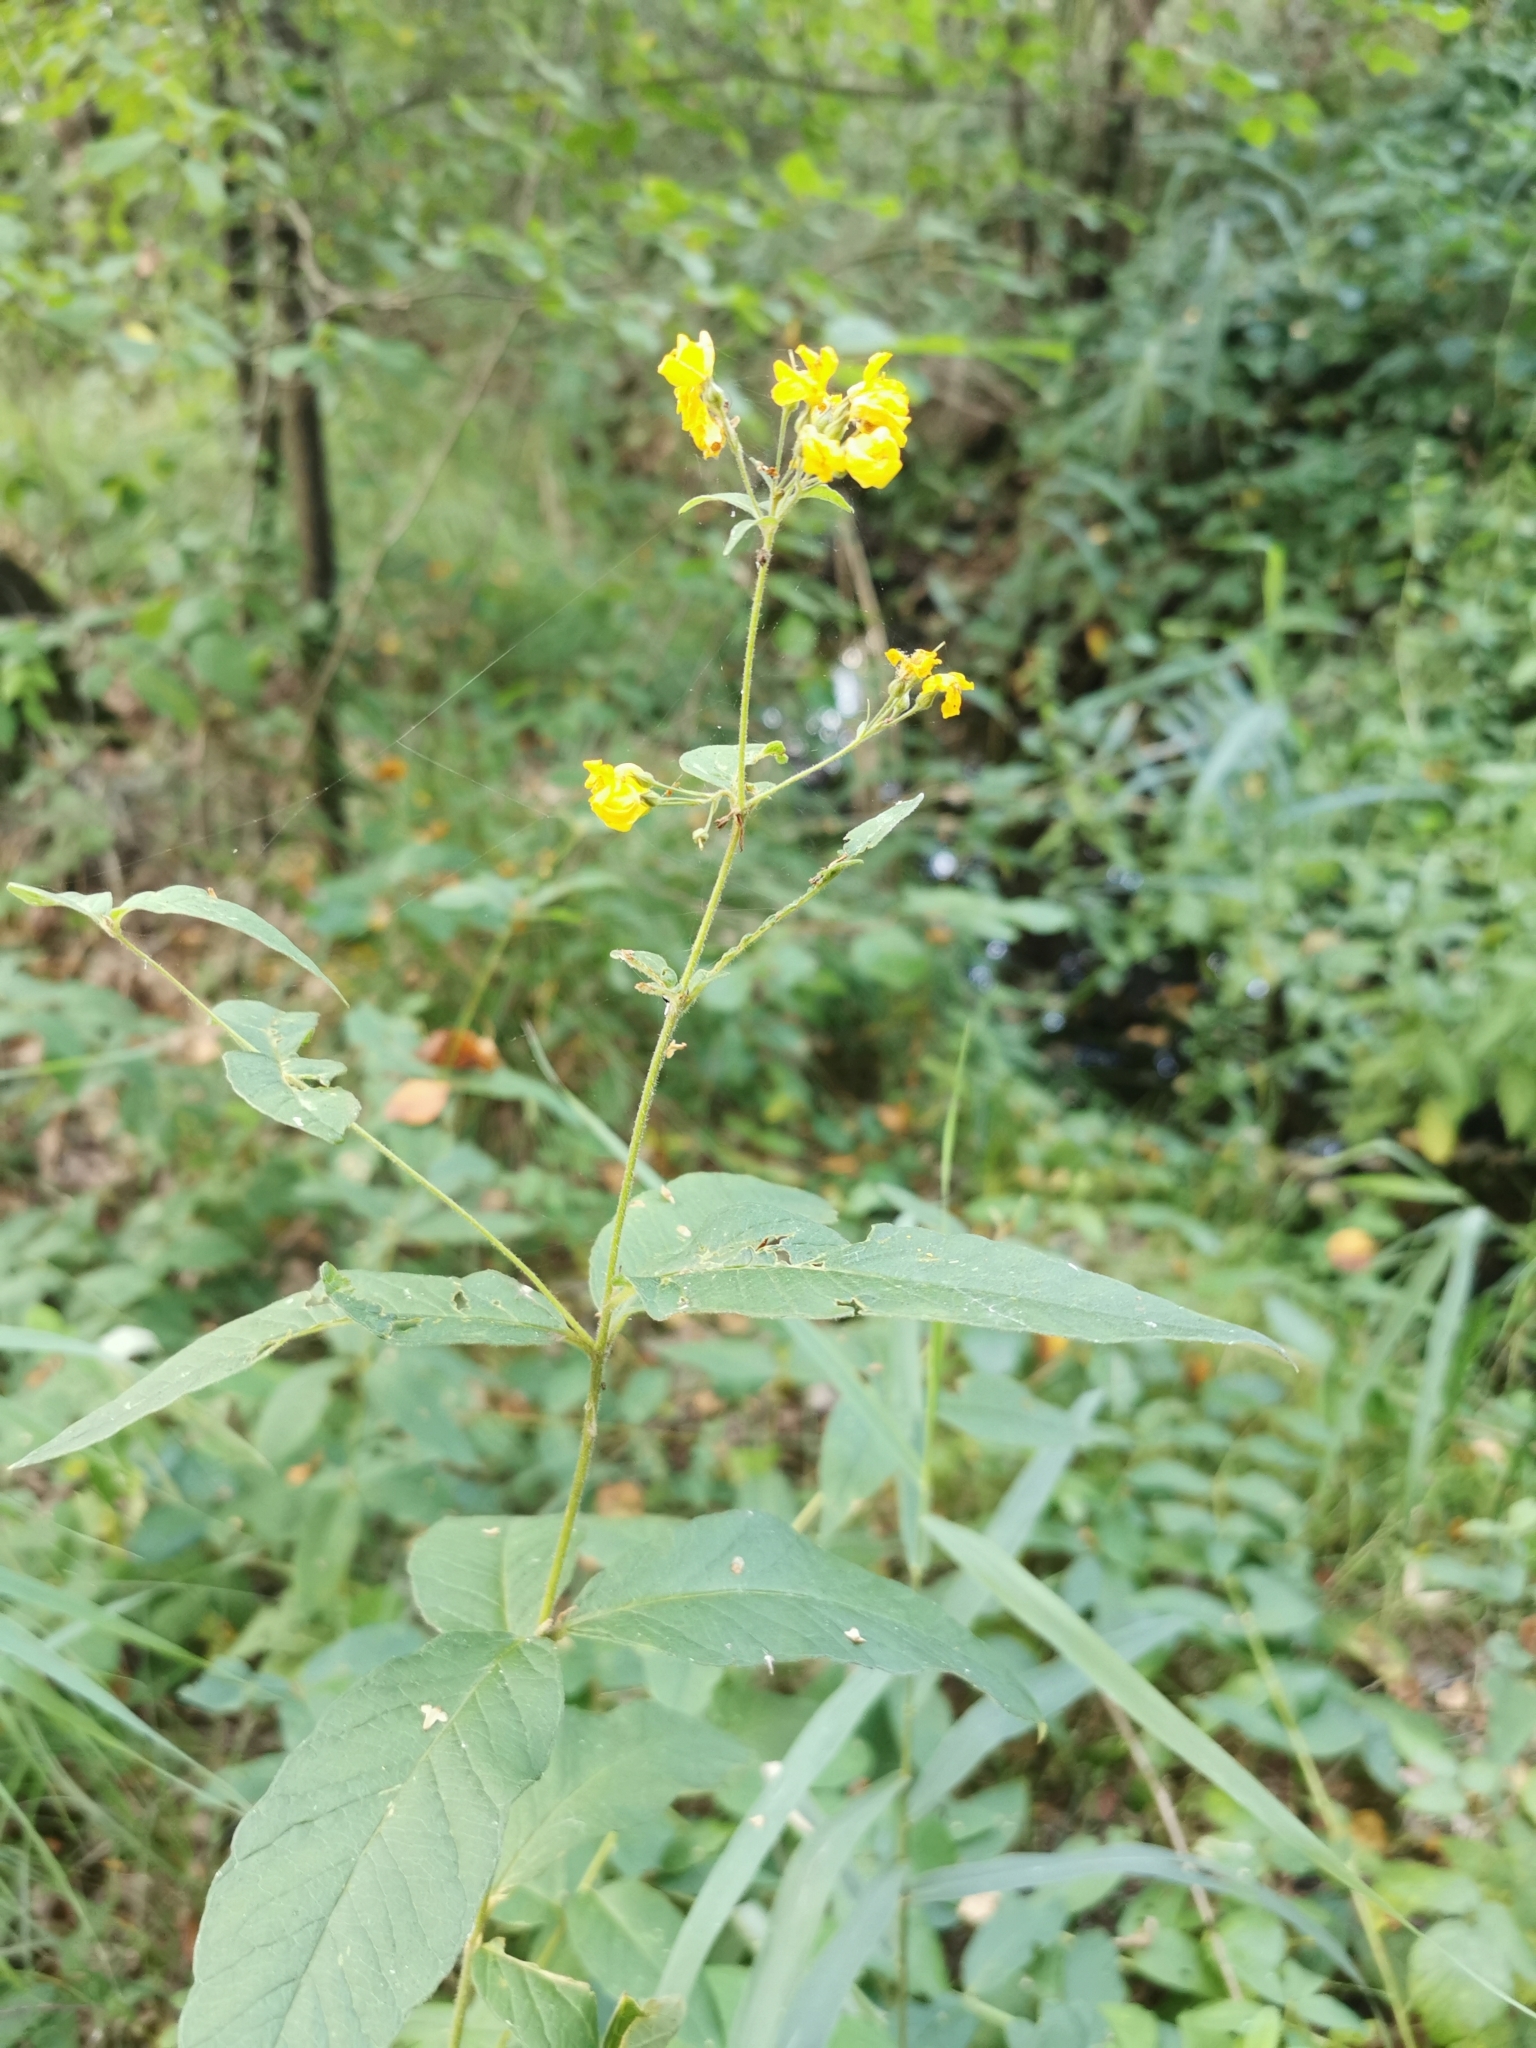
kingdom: Plantae
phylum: Tracheophyta
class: Magnoliopsida
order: Ericales
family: Primulaceae
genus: Lysimachia
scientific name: Lysimachia vulgaris
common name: Yellow loosestrife
